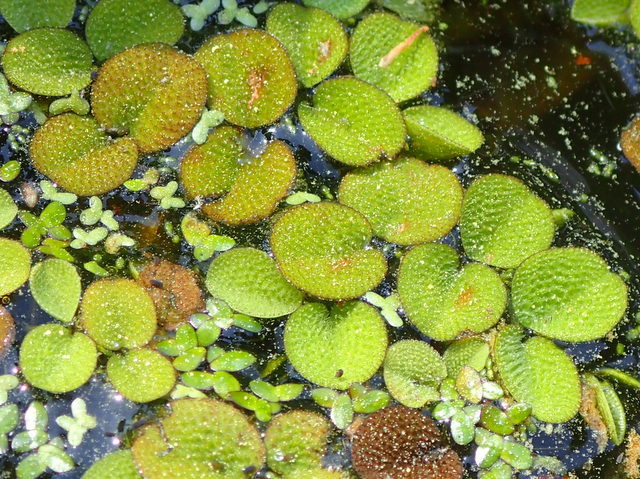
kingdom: Plantae
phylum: Tracheophyta
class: Polypodiopsida
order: Salviniales
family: Salviniaceae
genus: Salvinia
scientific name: Salvinia minima
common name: Water spangles
